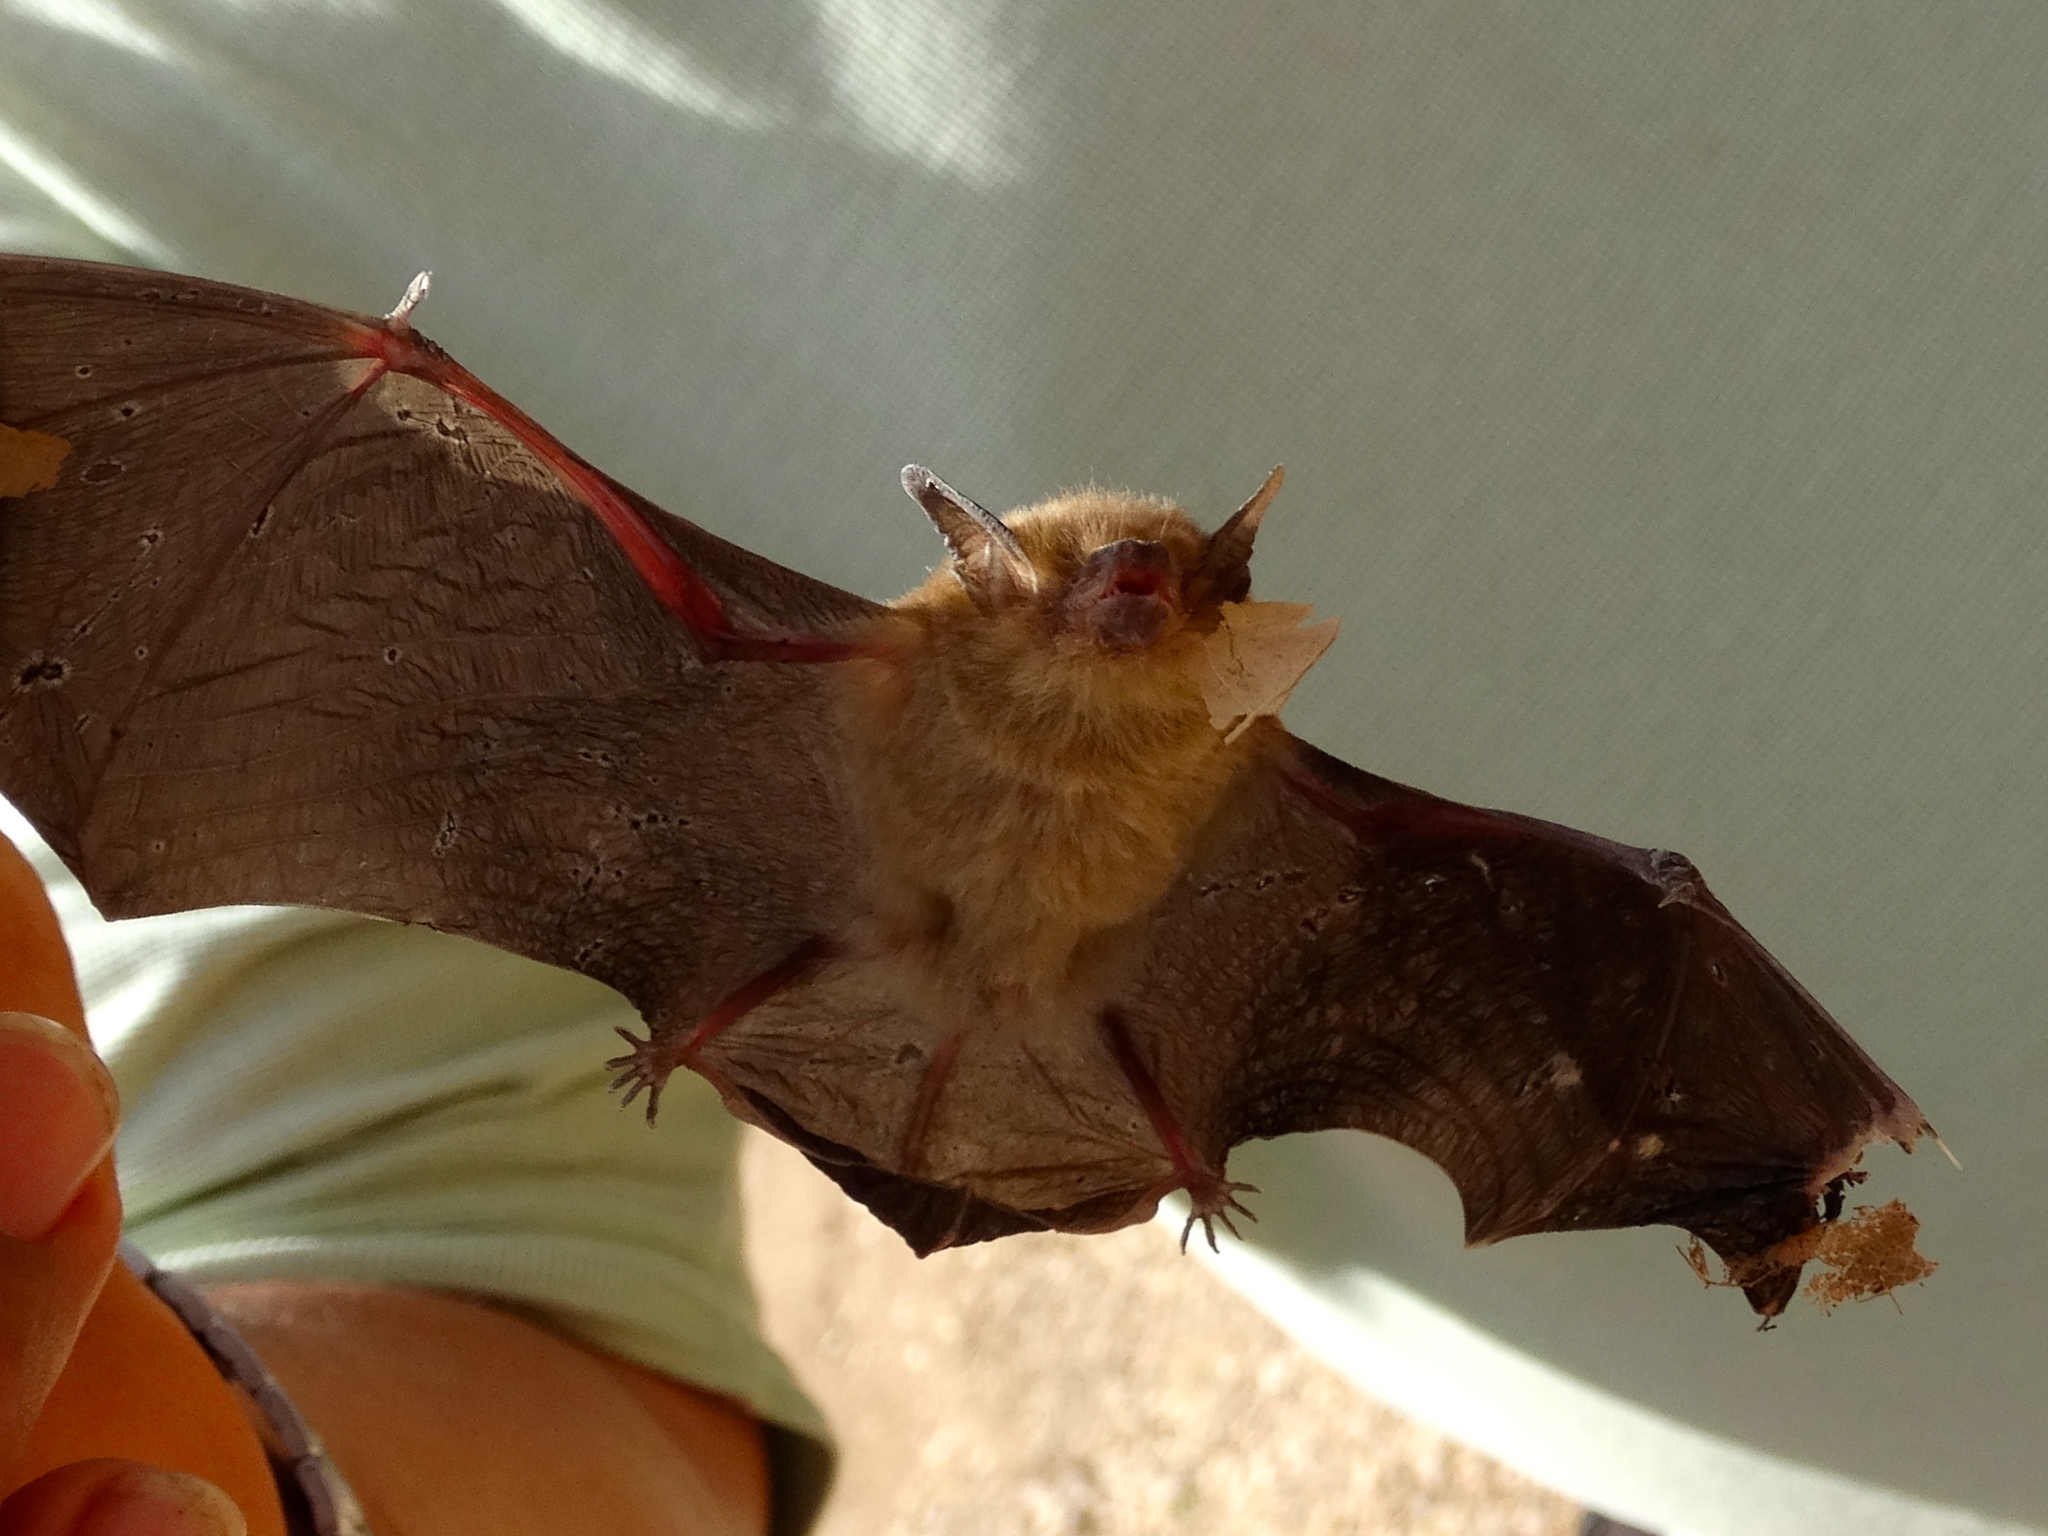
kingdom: Animalia
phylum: Chordata
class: Mammalia
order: Chiroptera
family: Vespertilionidae
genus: Rhogeessa
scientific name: Rhogeessa parvula
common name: Little yellow bat
